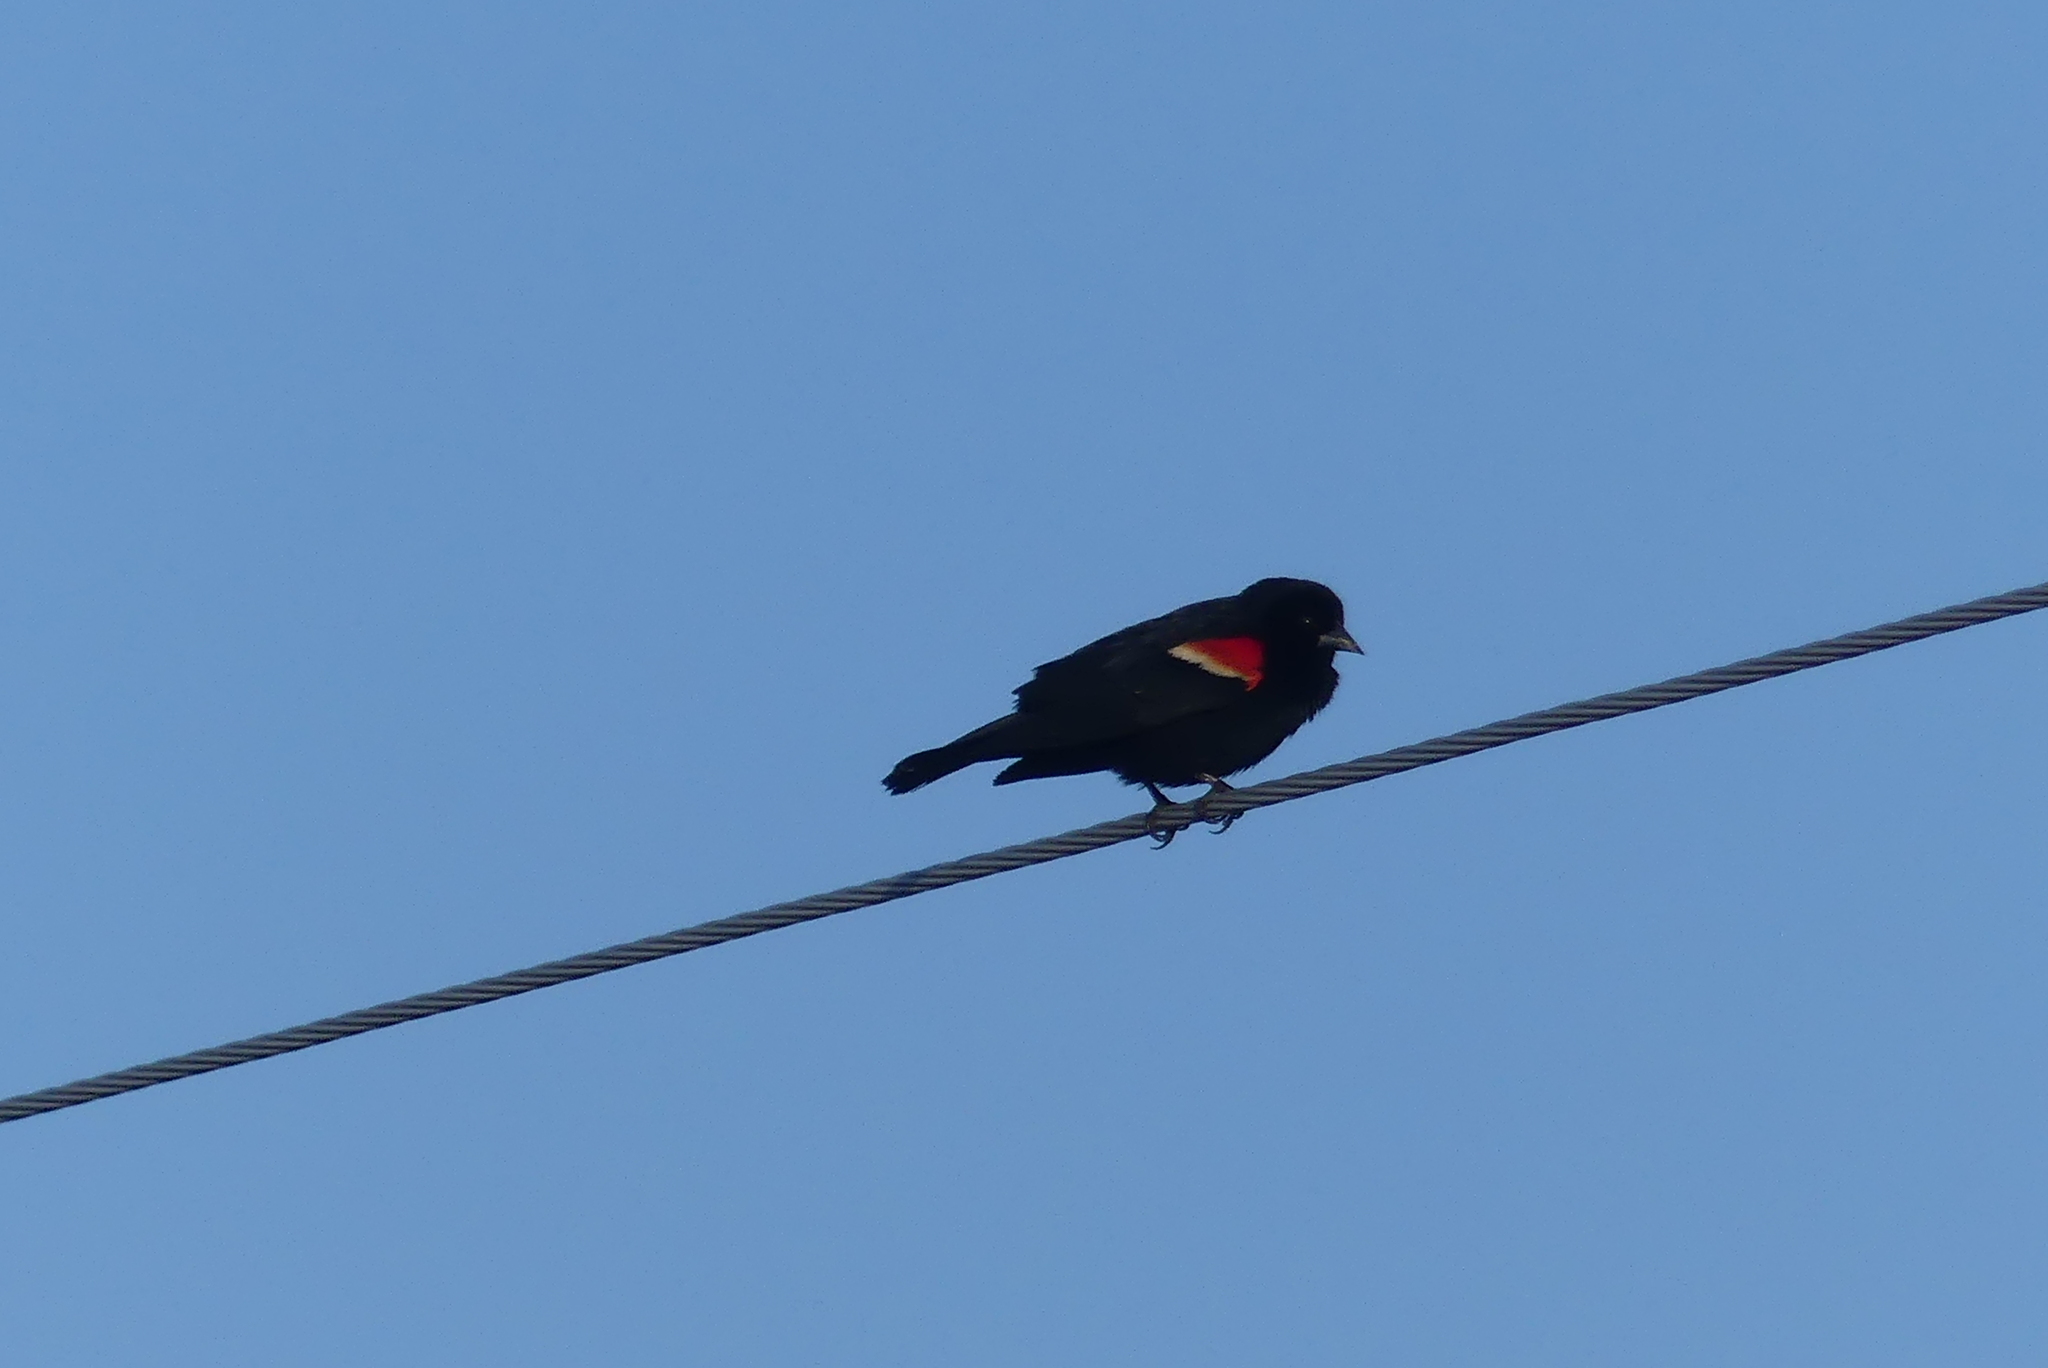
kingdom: Animalia
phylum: Chordata
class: Aves
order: Passeriformes
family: Icteridae
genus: Agelaius
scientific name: Agelaius phoeniceus
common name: Red-winged blackbird
